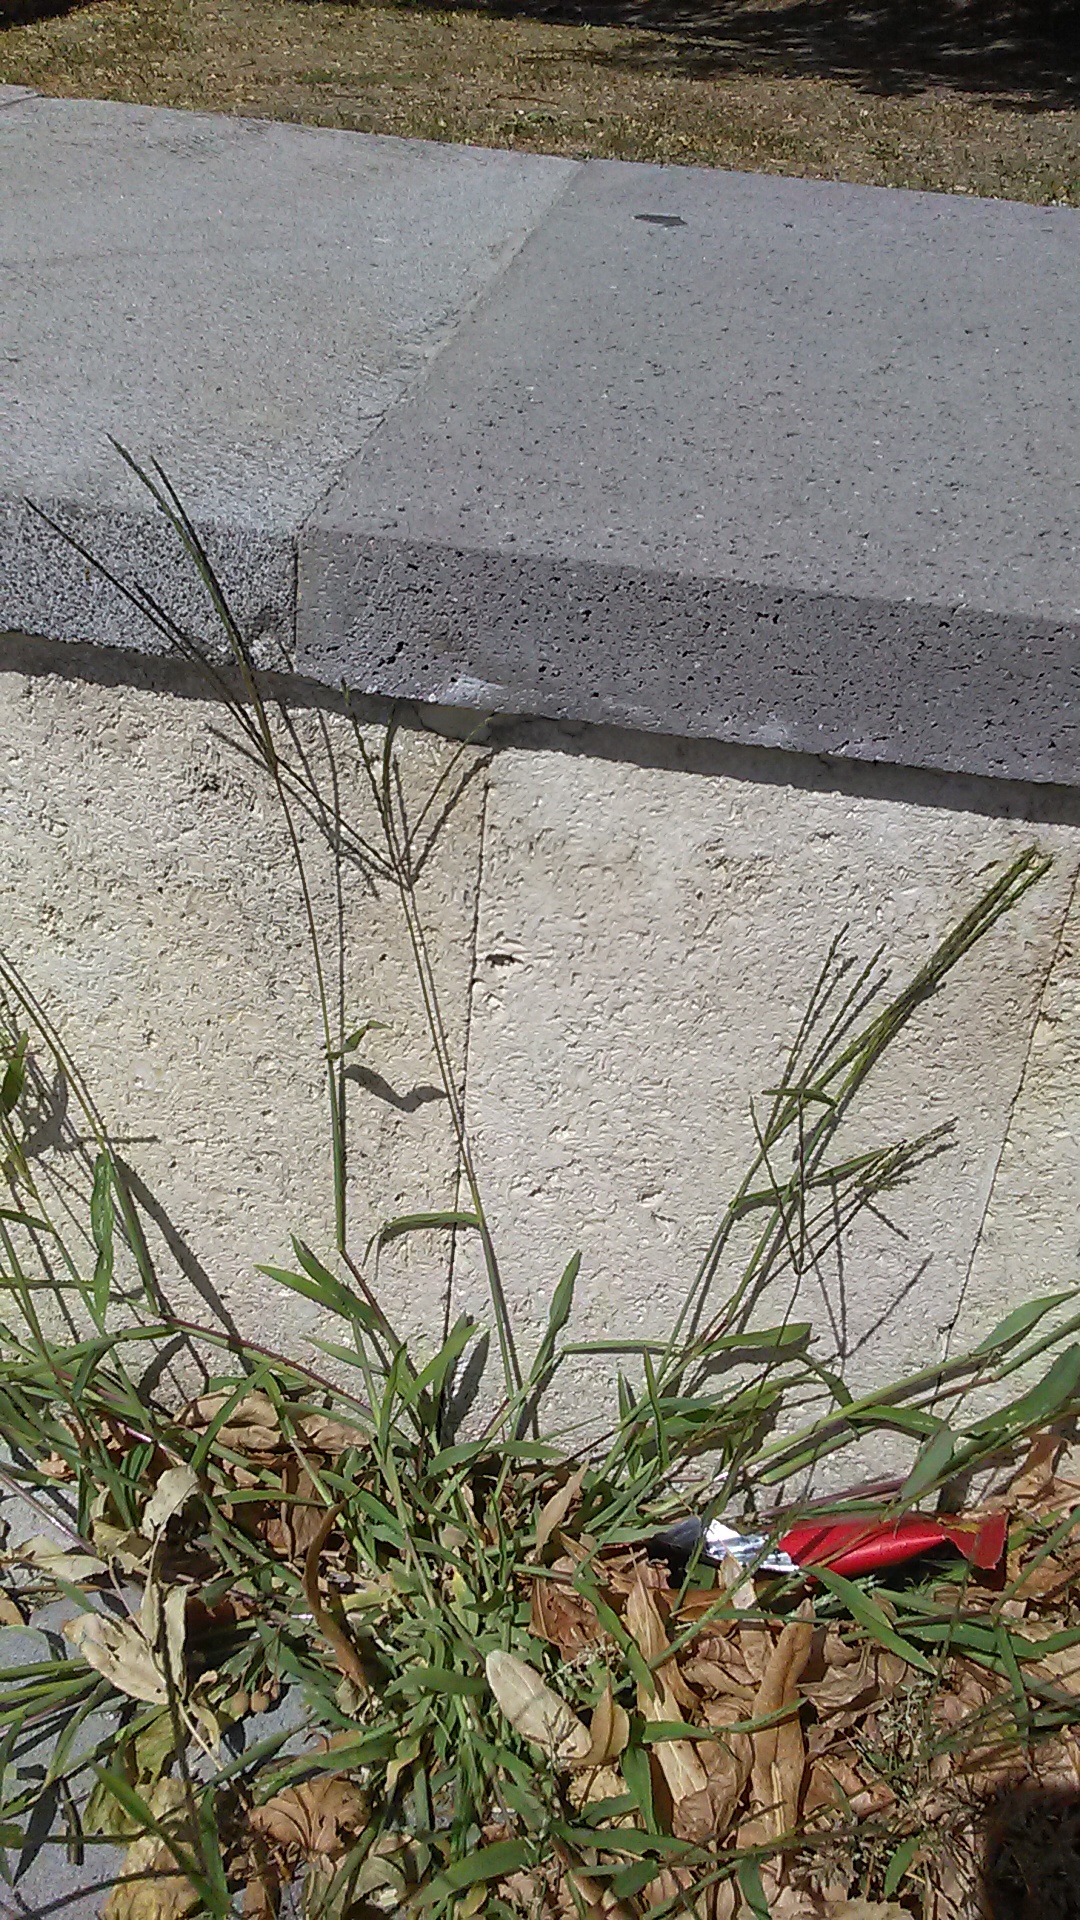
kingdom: Plantae
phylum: Tracheophyta
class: Liliopsida
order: Poales
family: Poaceae
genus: Digitaria
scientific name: Digitaria sanguinalis
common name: Hairy crabgrass
